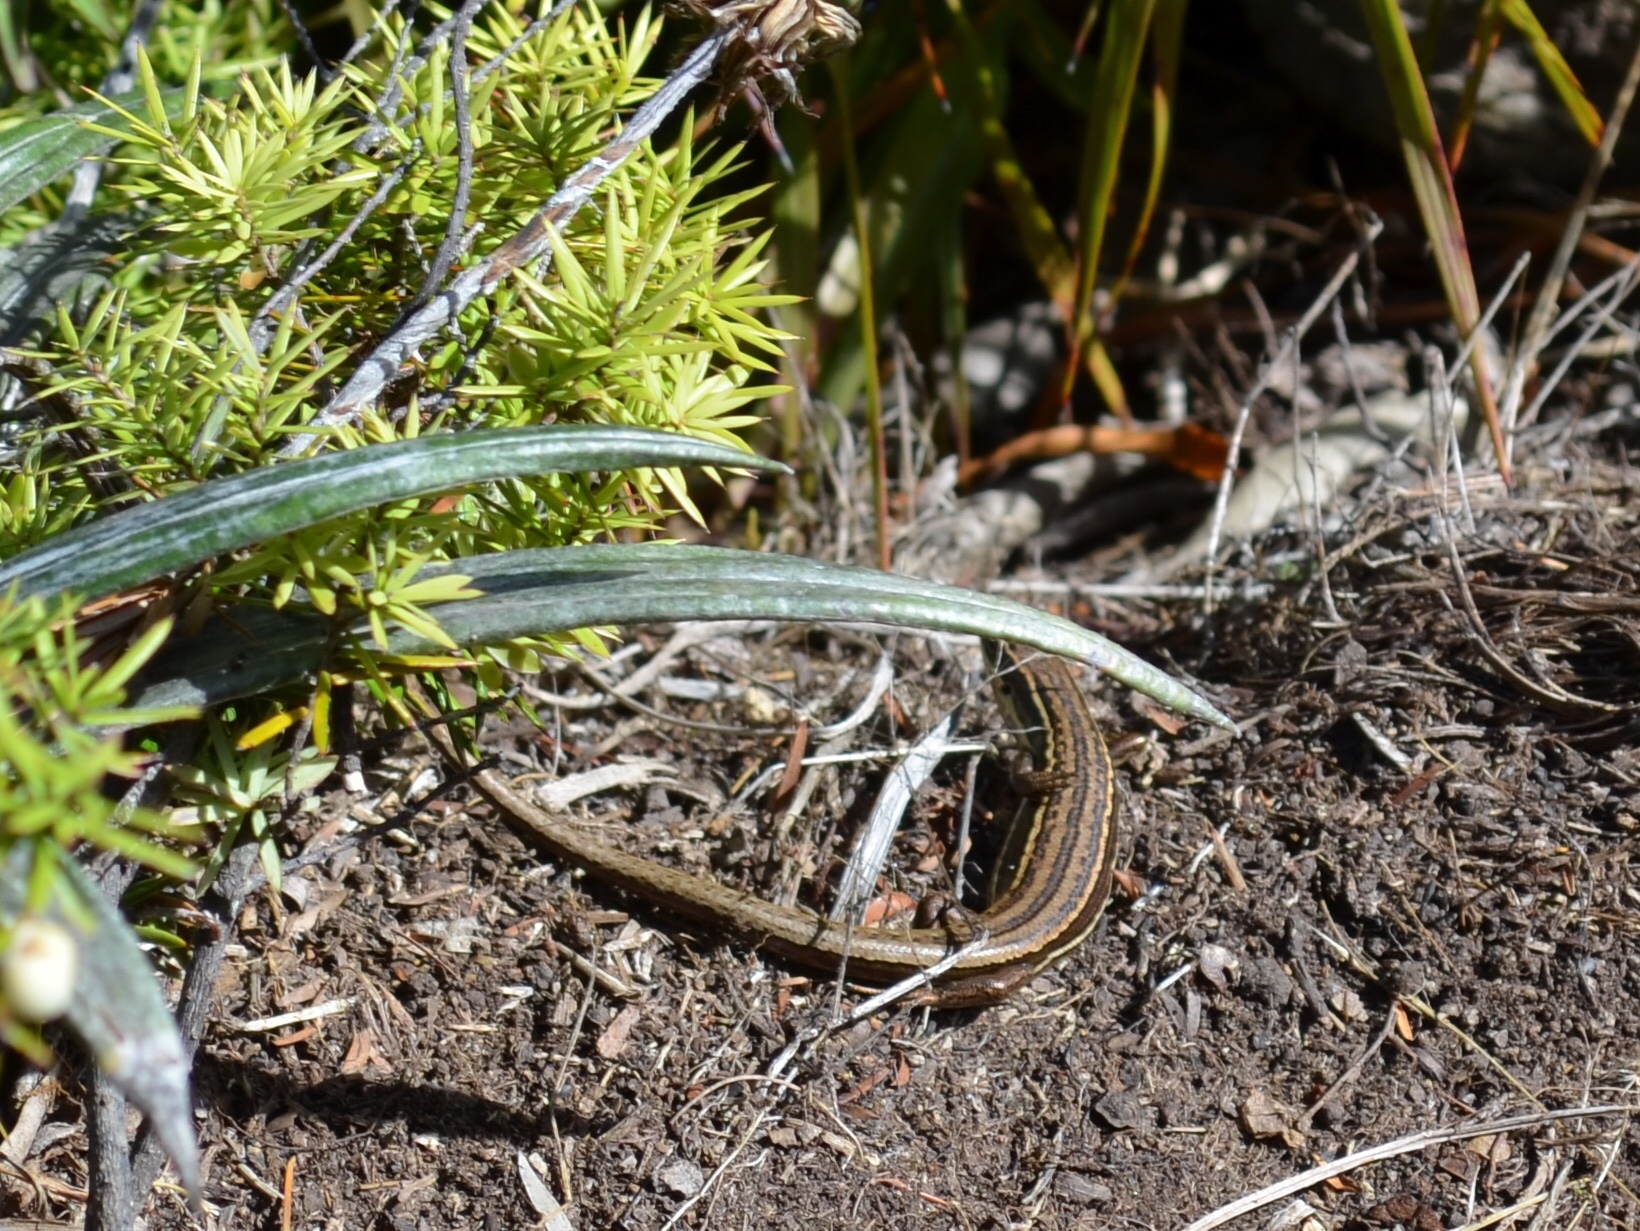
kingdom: Animalia
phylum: Chordata
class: Squamata
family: Scincidae
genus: Oligosoma
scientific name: Oligosoma moco
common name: Moco skink
